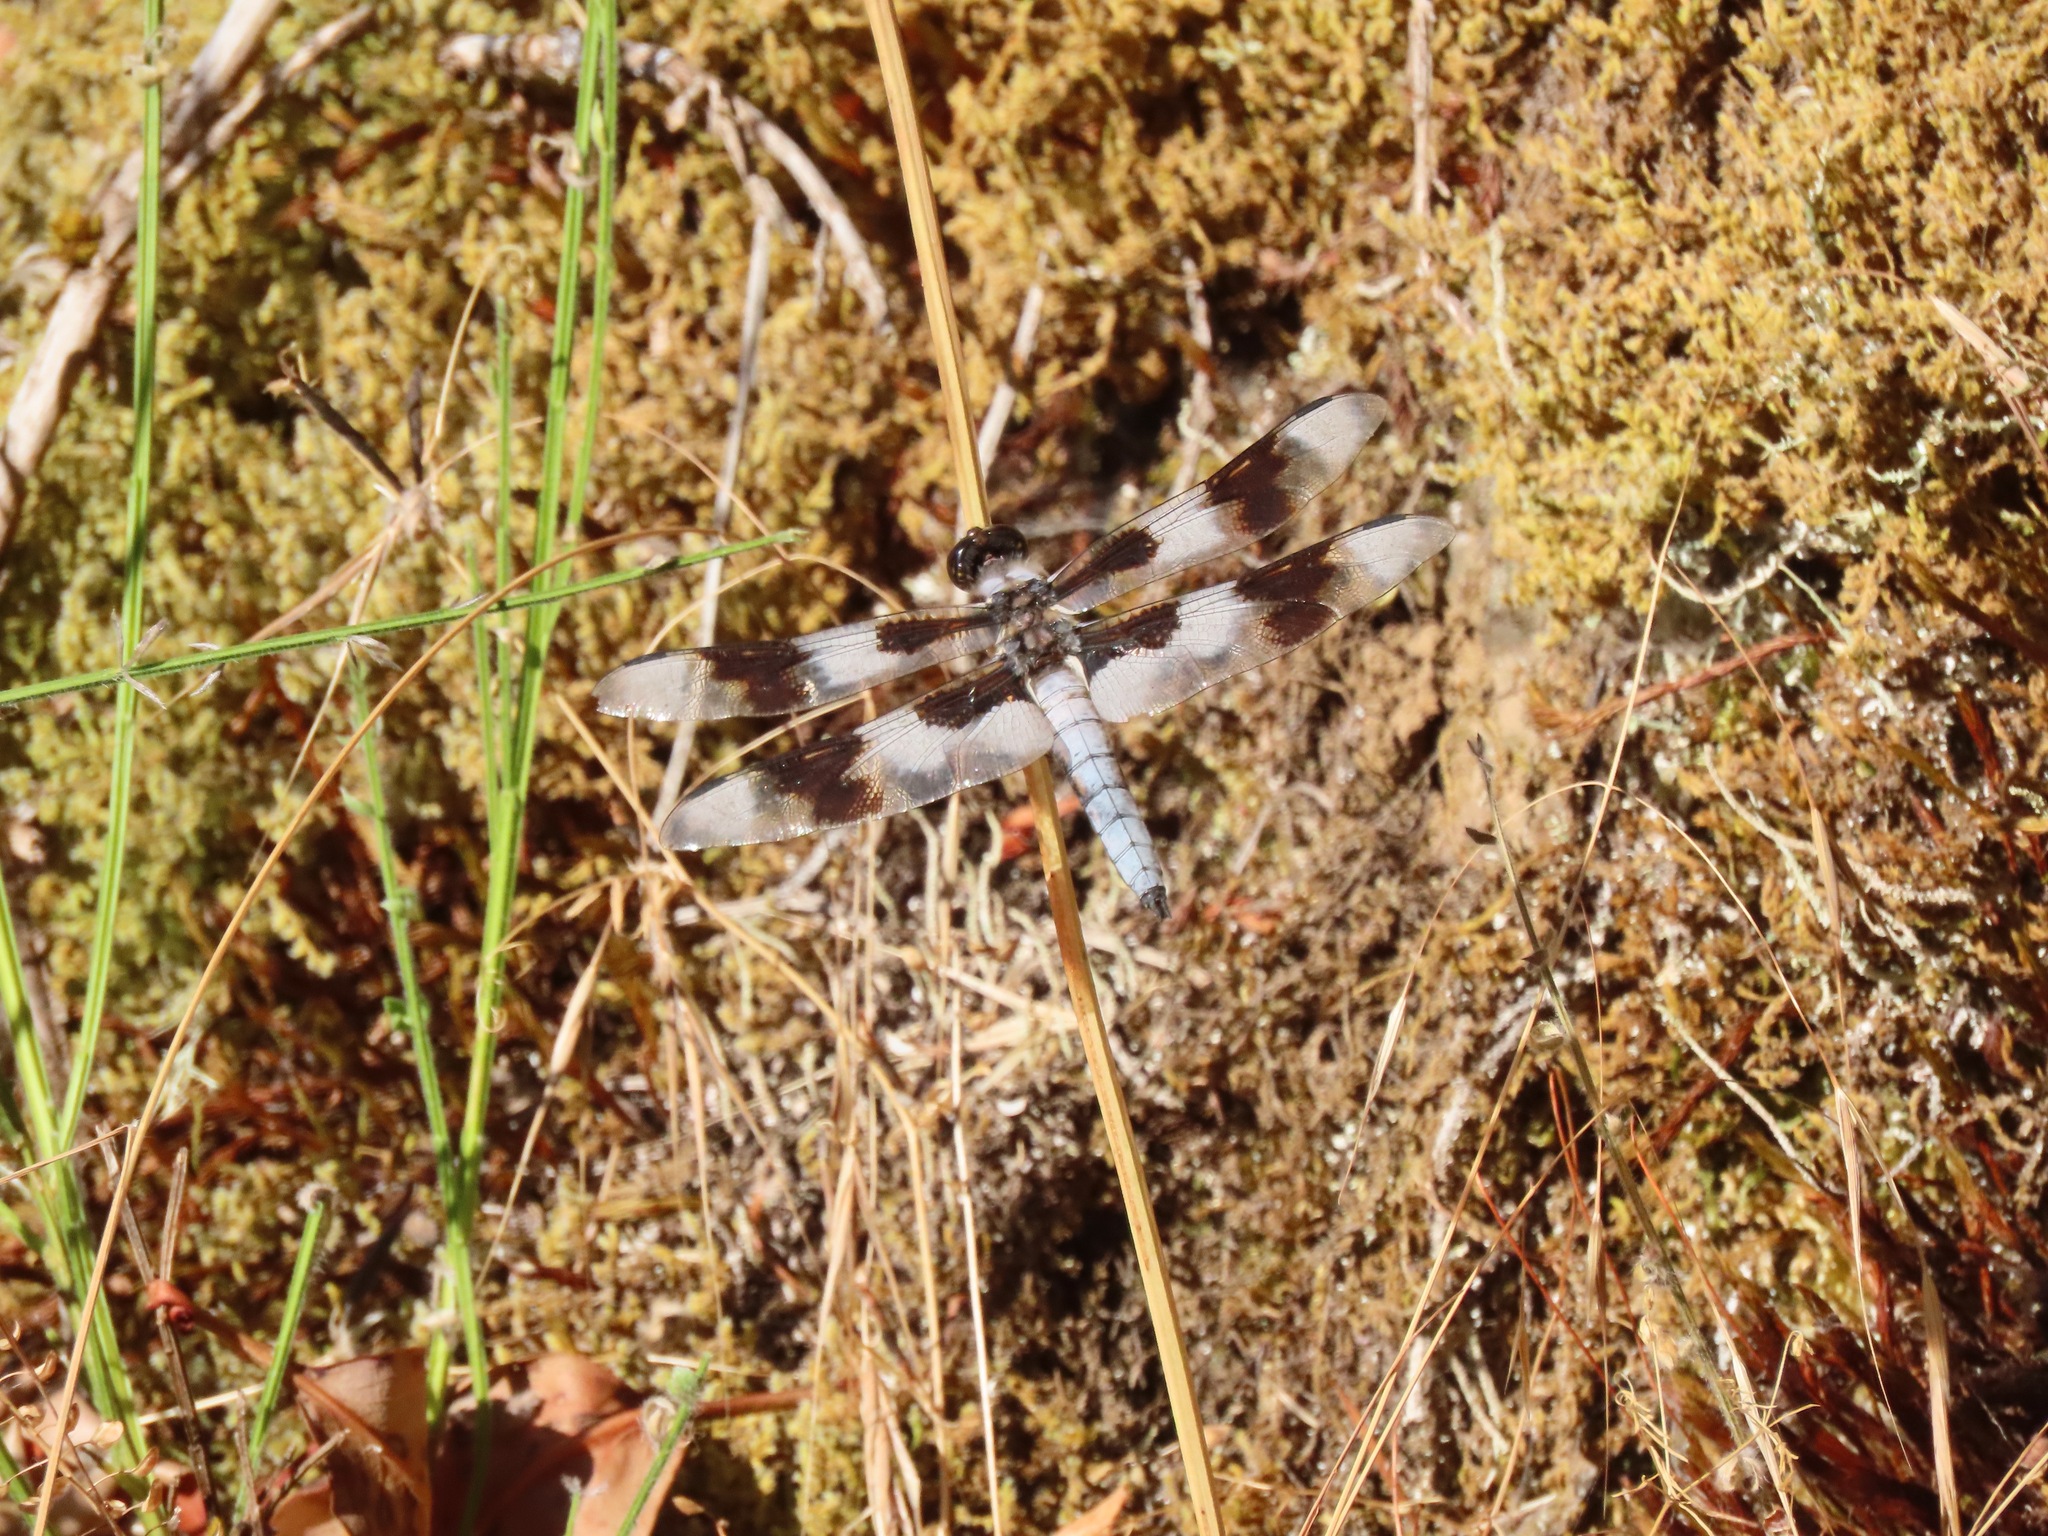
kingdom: Animalia
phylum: Arthropoda
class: Insecta
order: Odonata
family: Libellulidae
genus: Libellula
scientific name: Libellula forensis
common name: Eight-spotted skimmer
